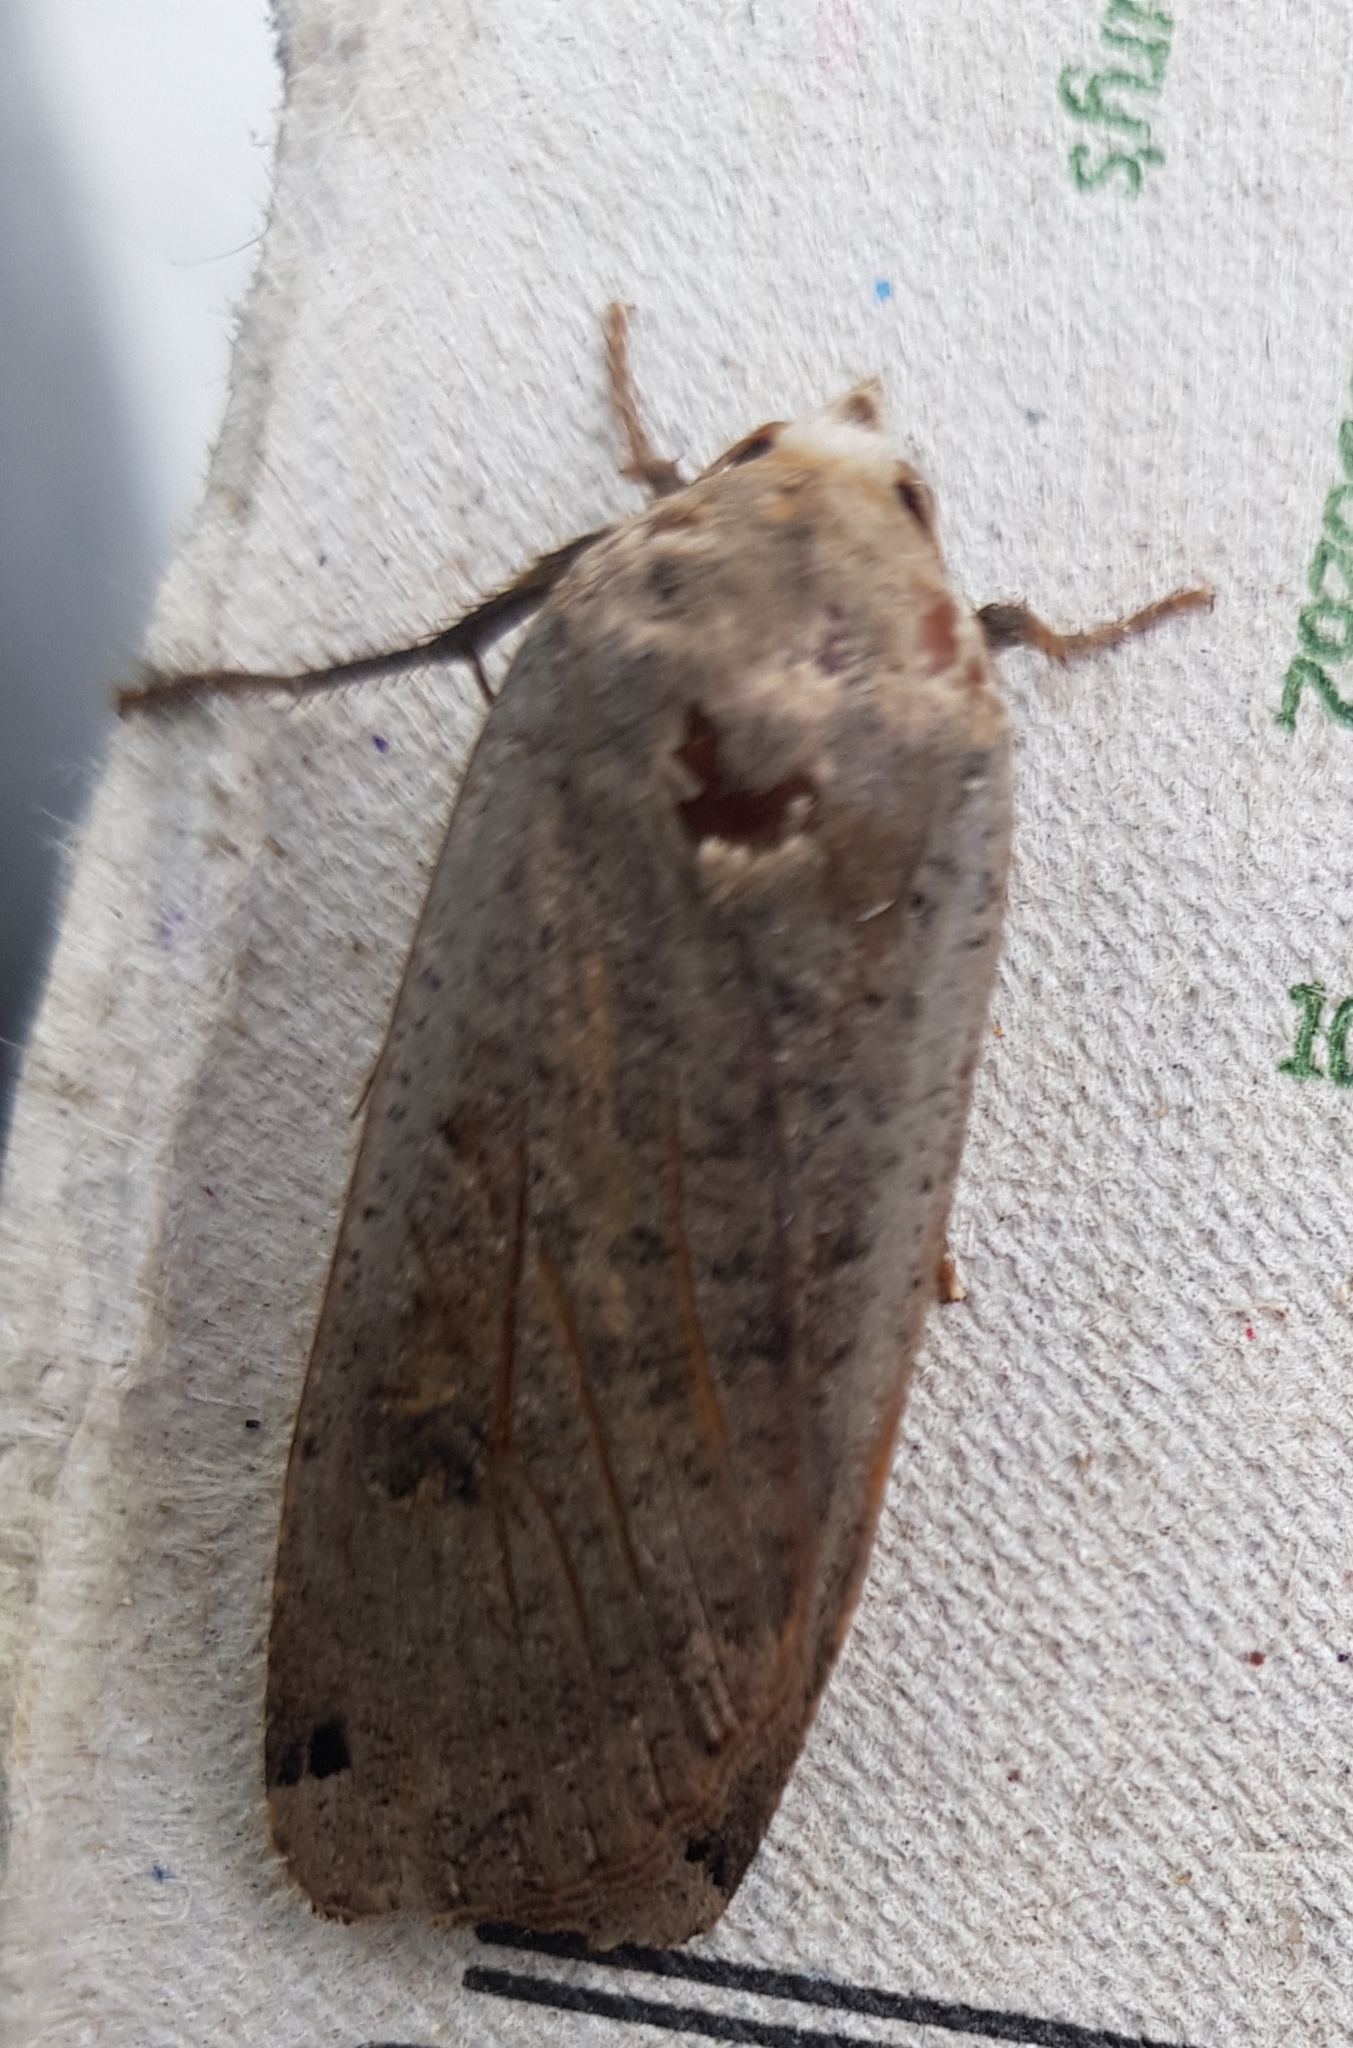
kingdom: Animalia
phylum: Arthropoda
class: Insecta
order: Lepidoptera
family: Noctuidae
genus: Noctua
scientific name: Noctua pronuba
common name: Large yellow underwing
